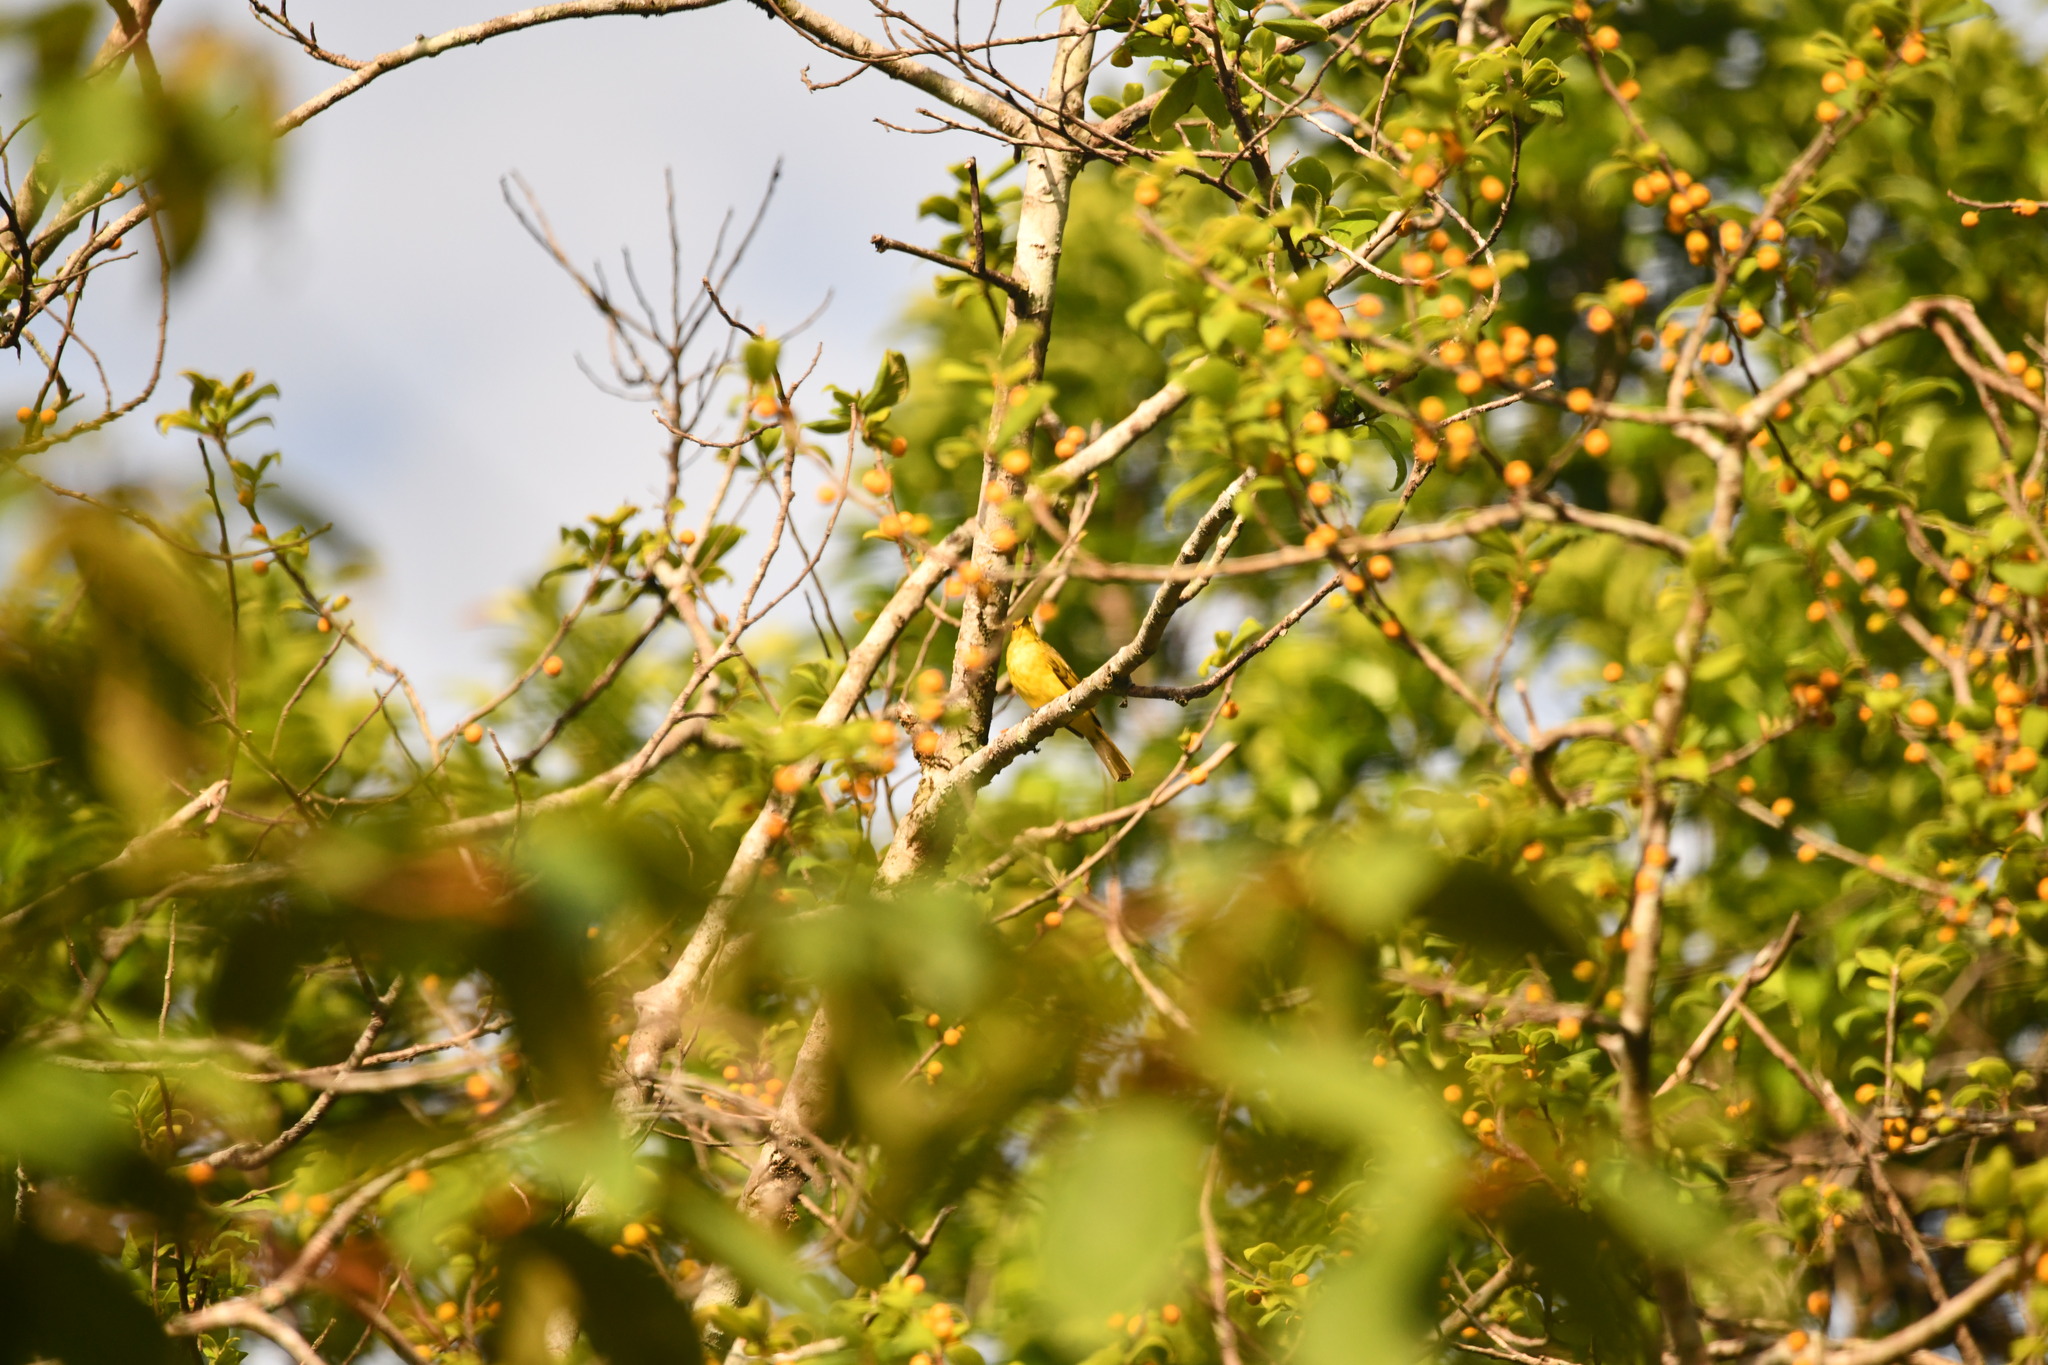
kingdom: Animalia
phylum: Chordata
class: Aves
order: Passeriformes
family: Pycnonotidae
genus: Acritillas
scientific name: Acritillas indica
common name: Yellow-browed bulbul
